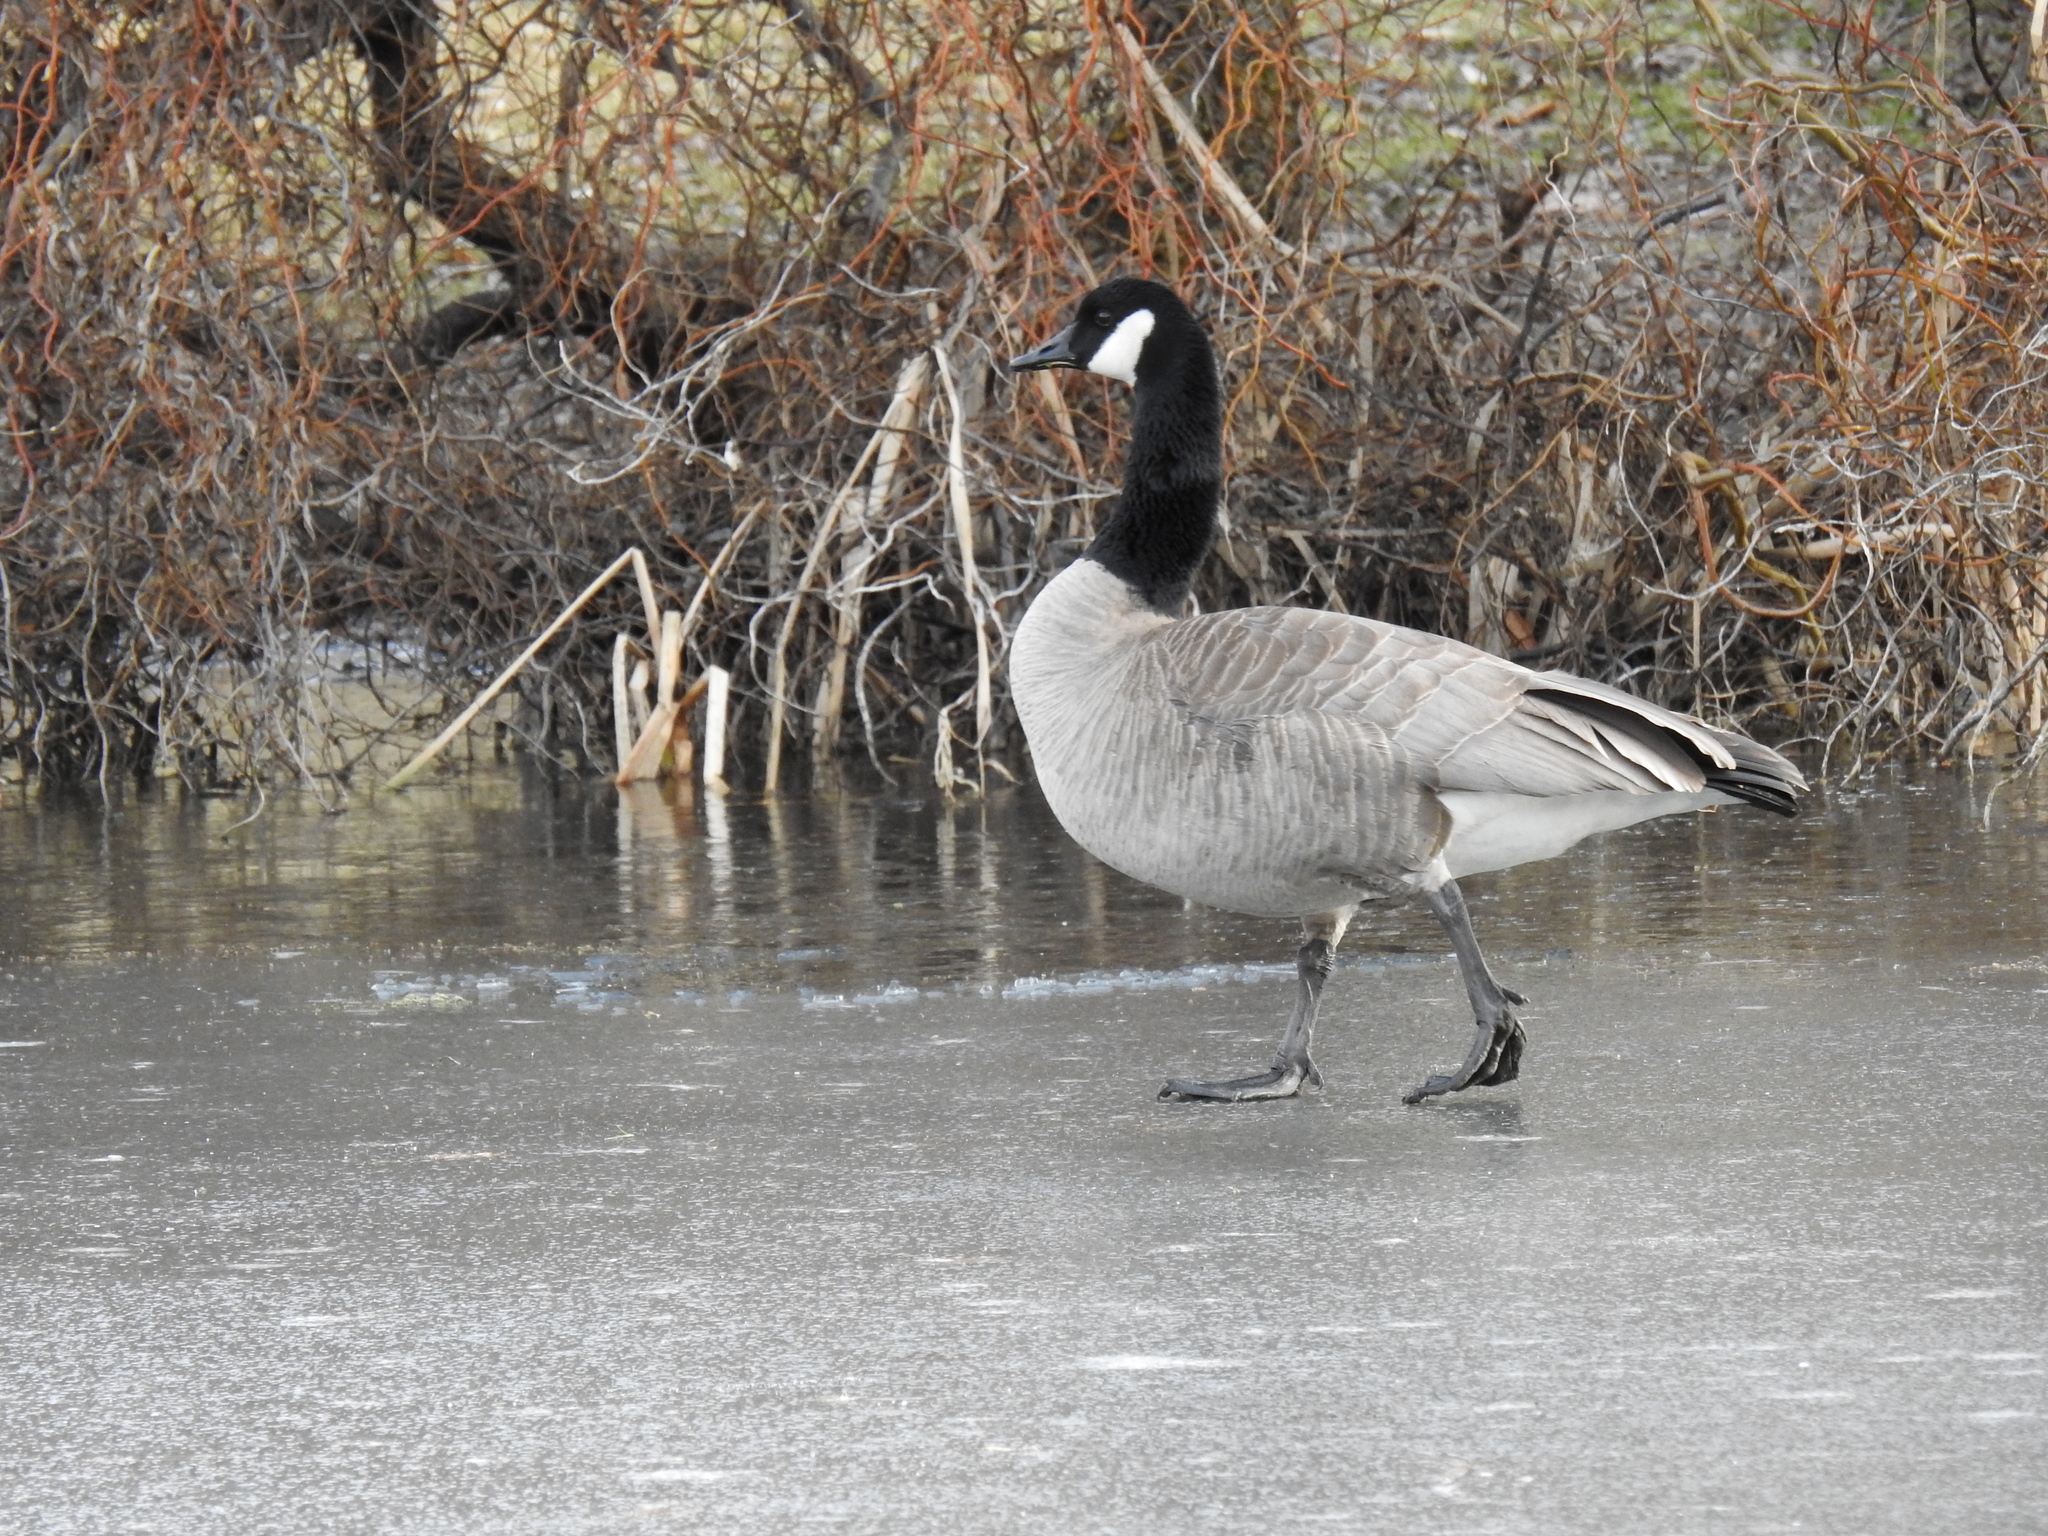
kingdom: Animalia
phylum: Chordata
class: Aves
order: Anseriformes
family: Anatidae
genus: Branta
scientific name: Branta canadensis
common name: Canada goose
